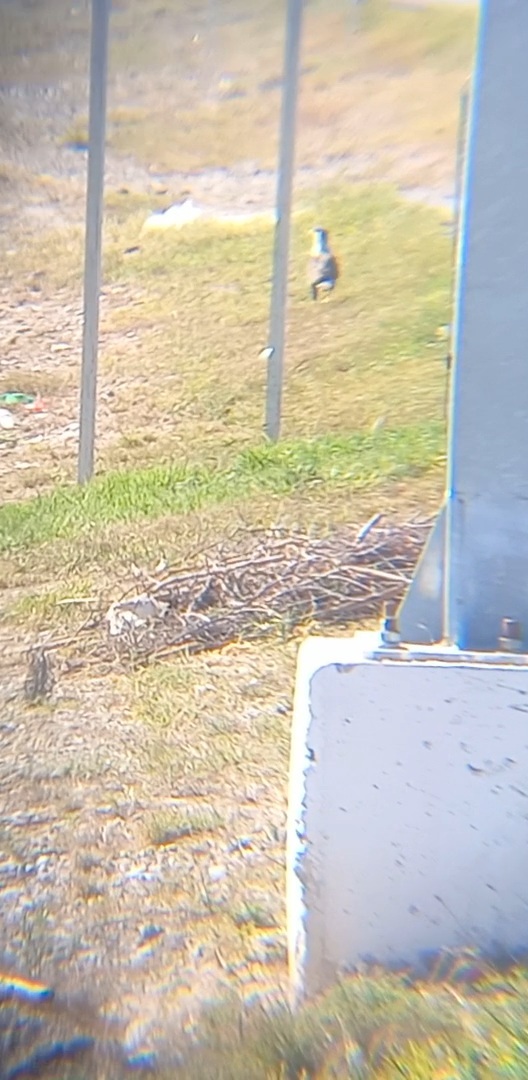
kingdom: Animalia
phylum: Chordata
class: Aves
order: Falconiformes
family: Falconidae
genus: Caracara
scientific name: Caracara plancus
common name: Southern caracara
